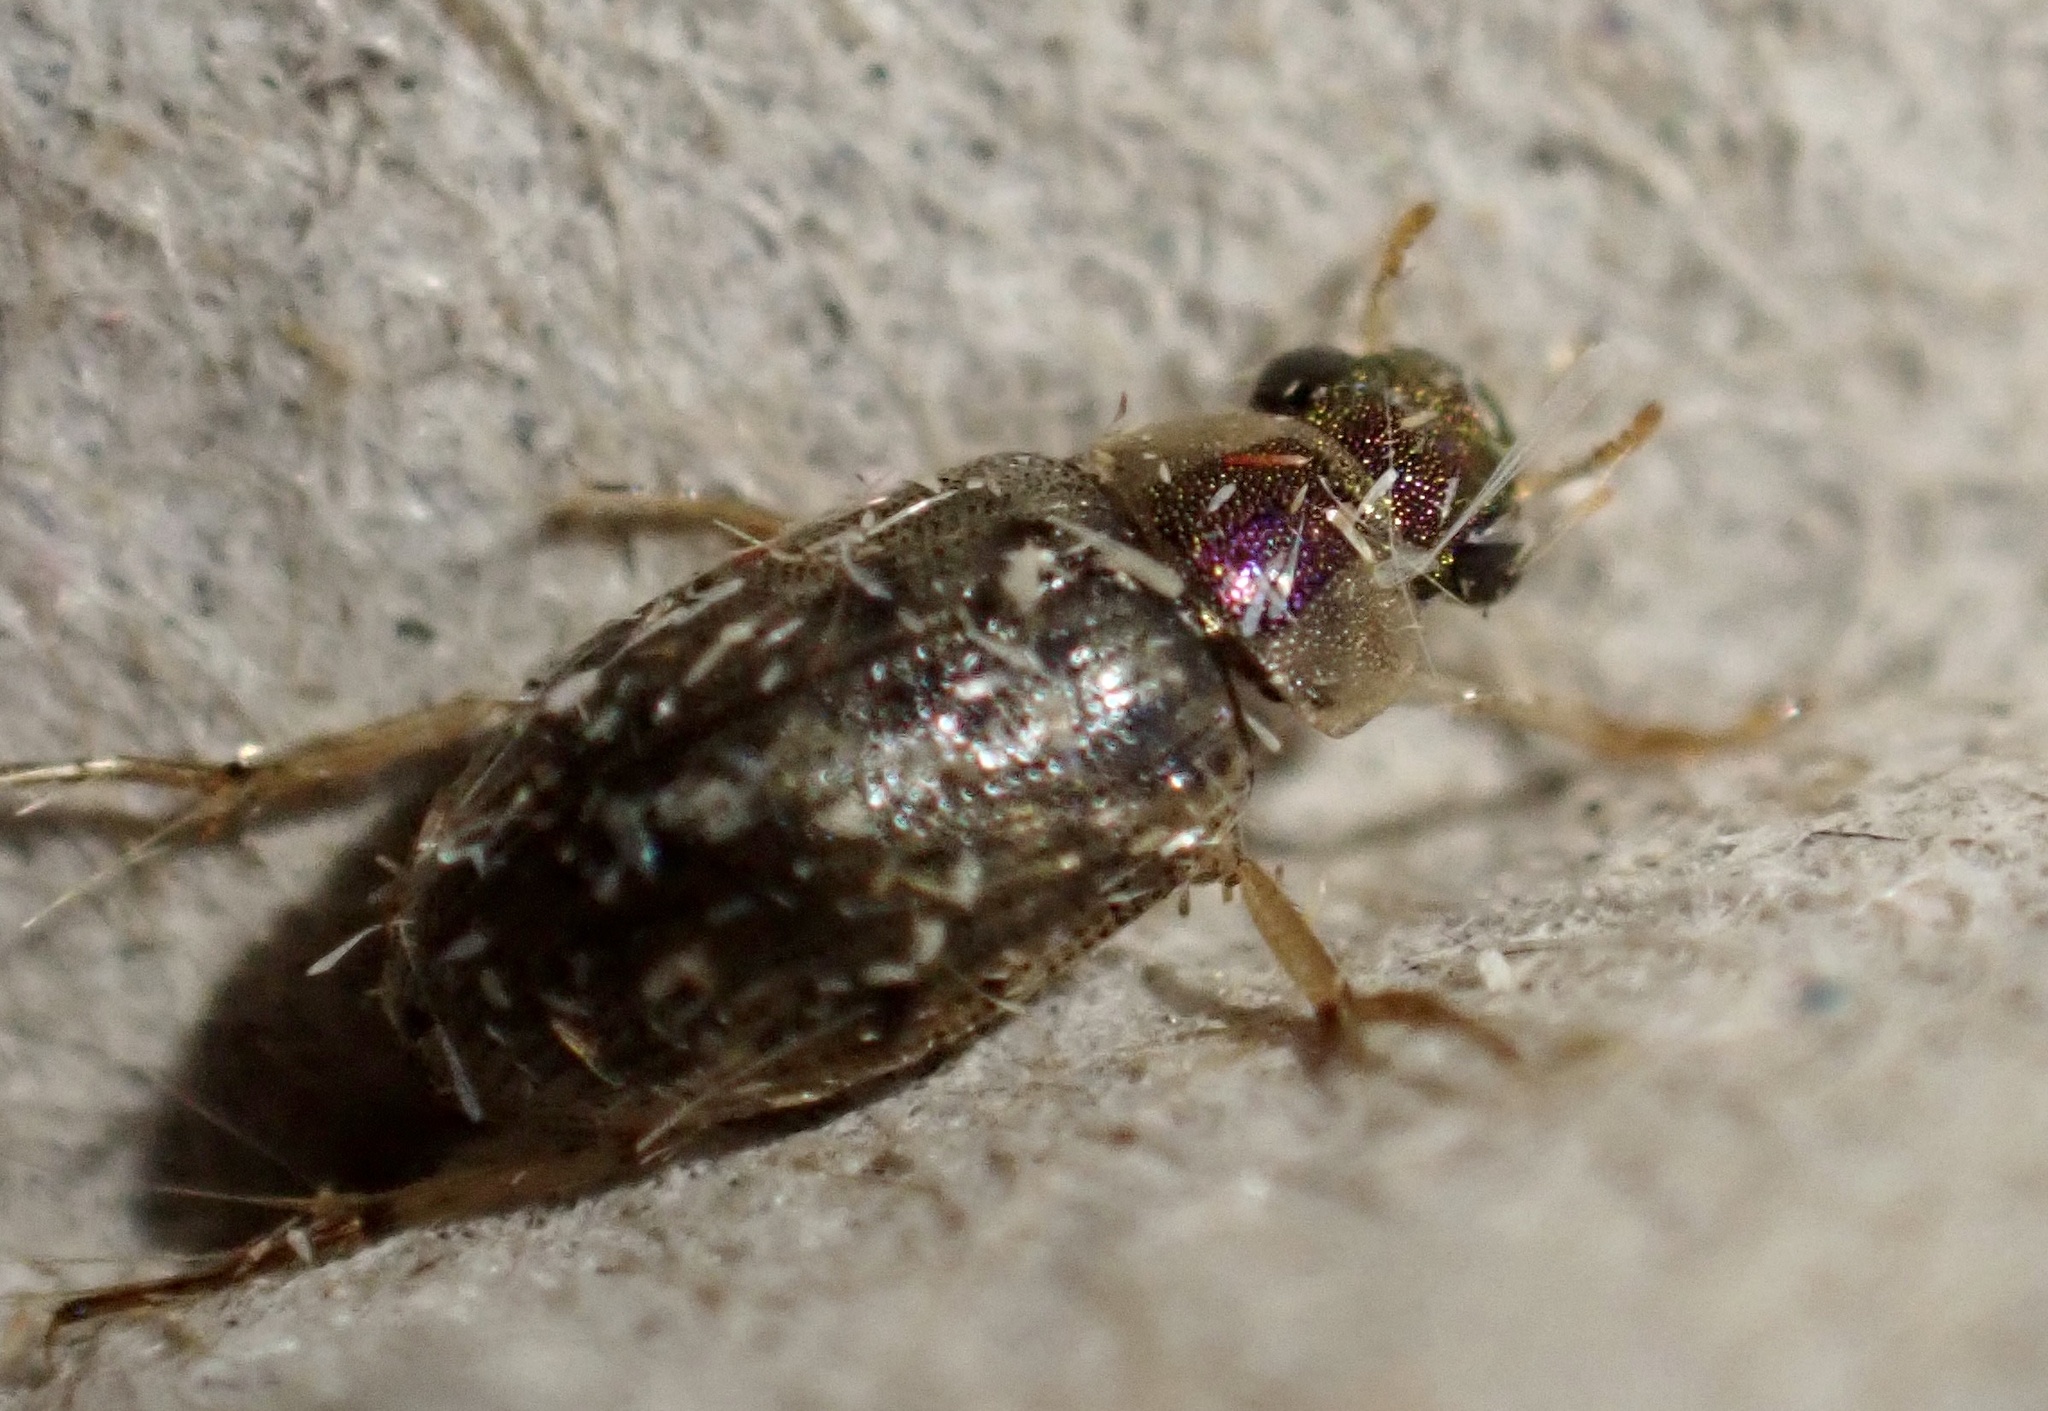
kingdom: Animalia
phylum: Arthropoda
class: Insecta
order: Coleoptera
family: Hydrophilidae
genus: Berosus
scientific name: Berosus
